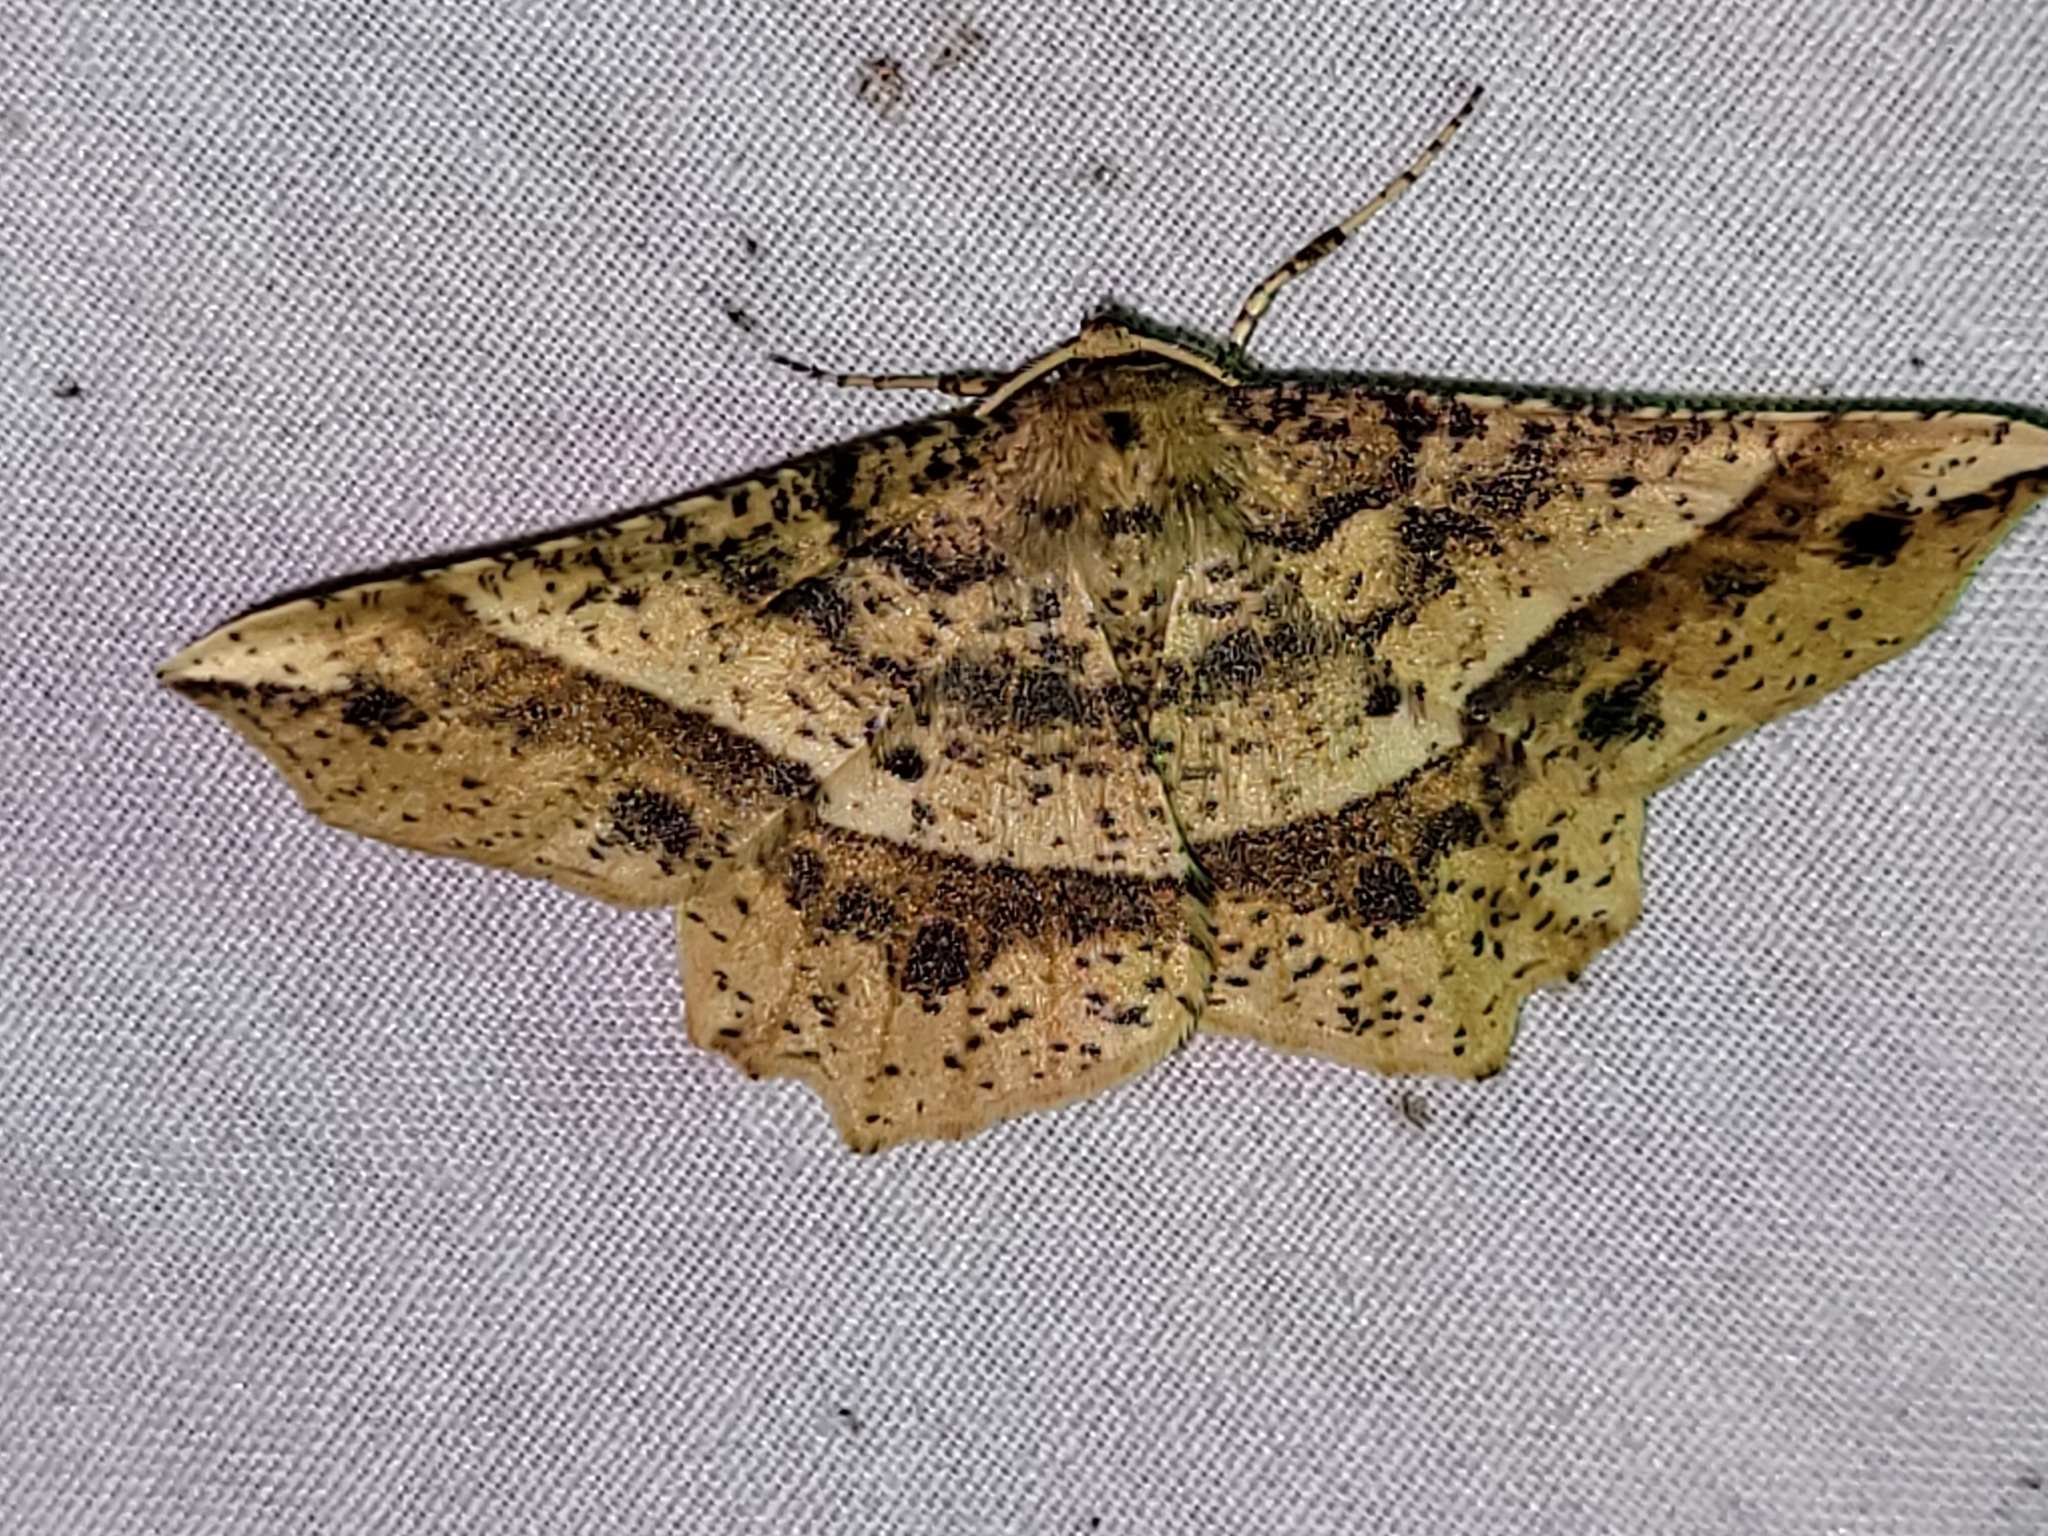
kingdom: Animalia
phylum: Arthropoda
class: Insecta
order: Lepidoptera
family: Geometridae
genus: Euchlaena
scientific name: Euchlaena tigrinaria
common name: Mottled euchlaena moth
